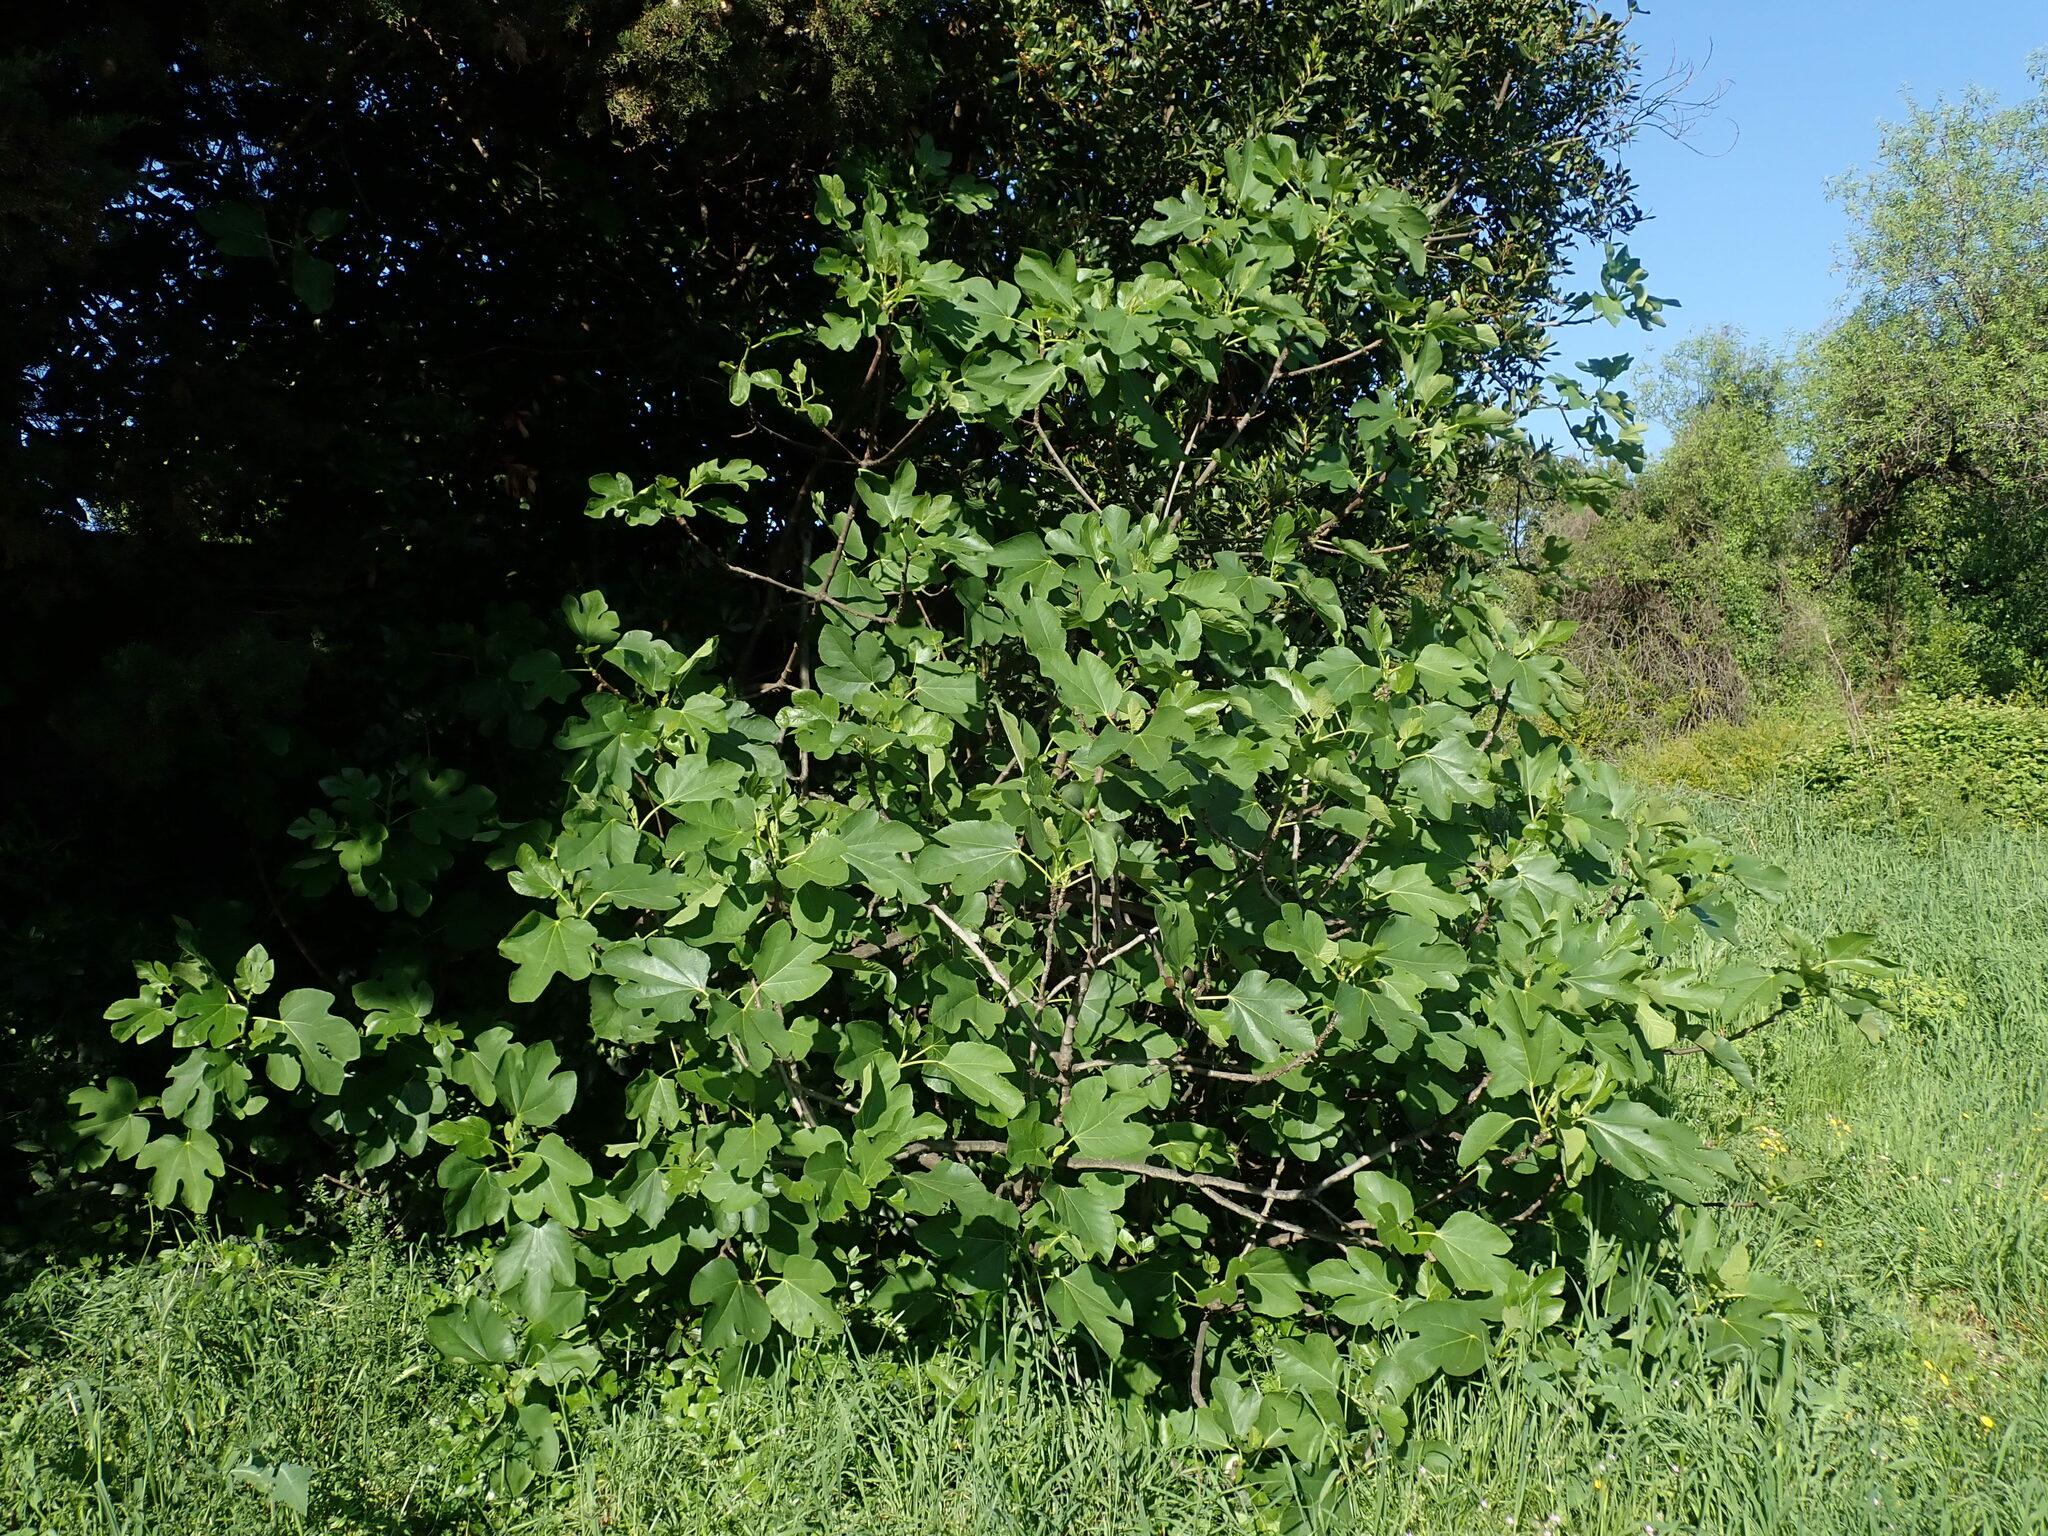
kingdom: Plantae
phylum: Tracheophyta
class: Magnoliopsida
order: Rosales
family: Moraceae
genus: Ficus
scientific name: Ficus carica
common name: Fig
